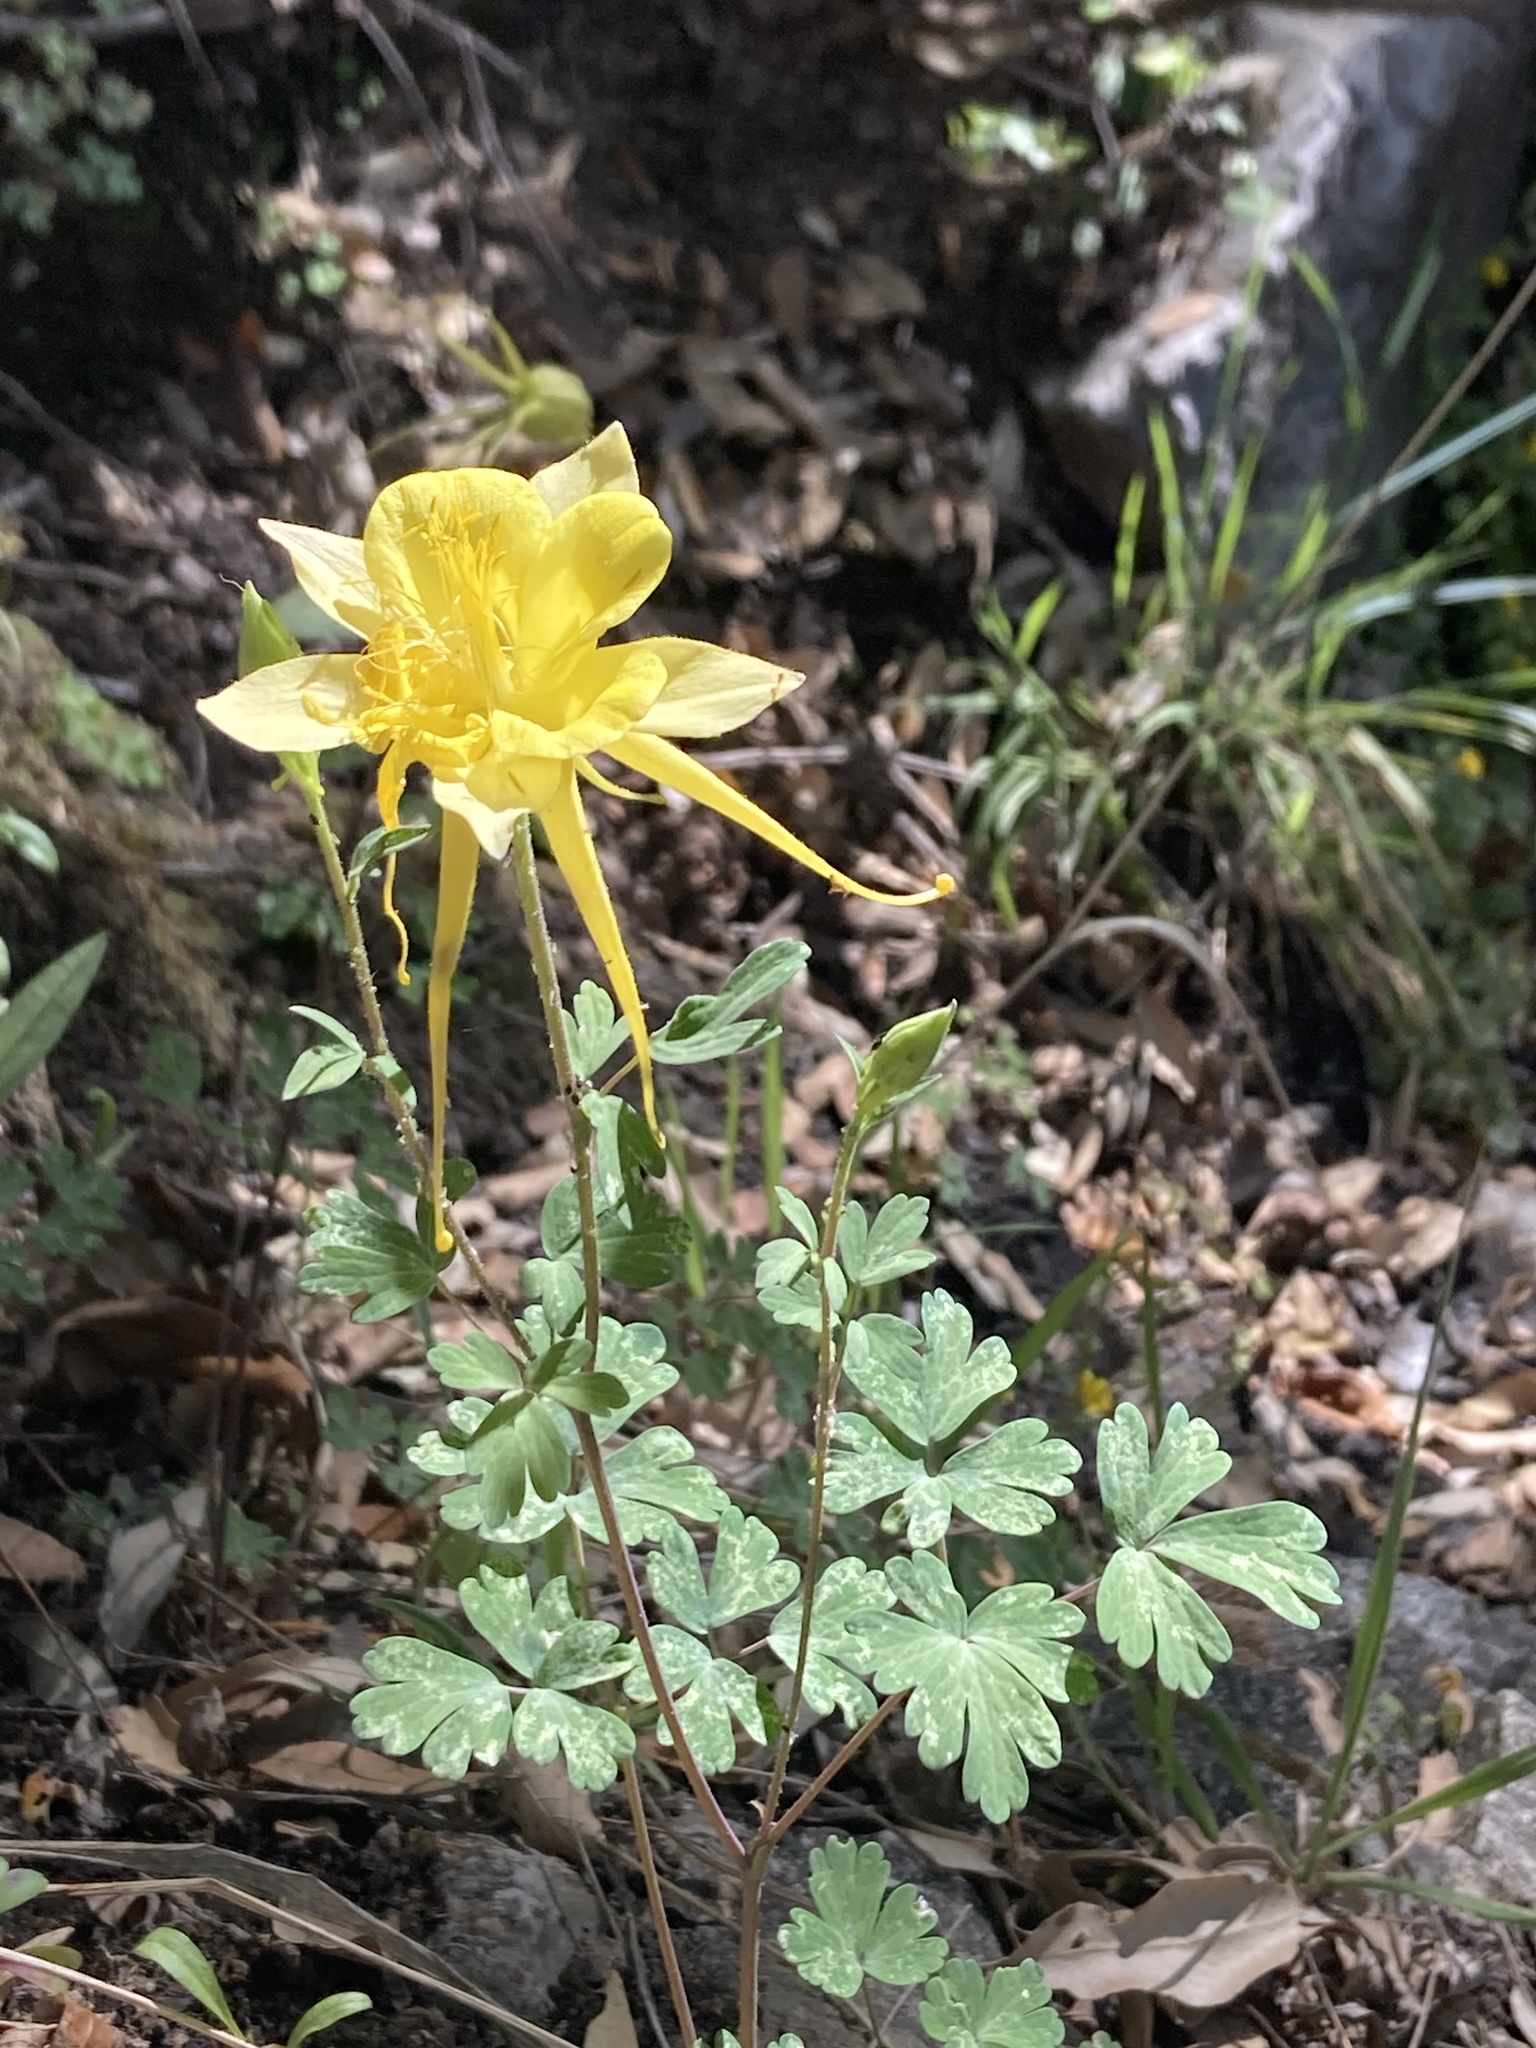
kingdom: Plantae
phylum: Tracheophyta
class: Magnoliopsida
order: Ranunculales
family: Ranunculaceae
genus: Aquilegia
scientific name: Aquilegia chrysantha
